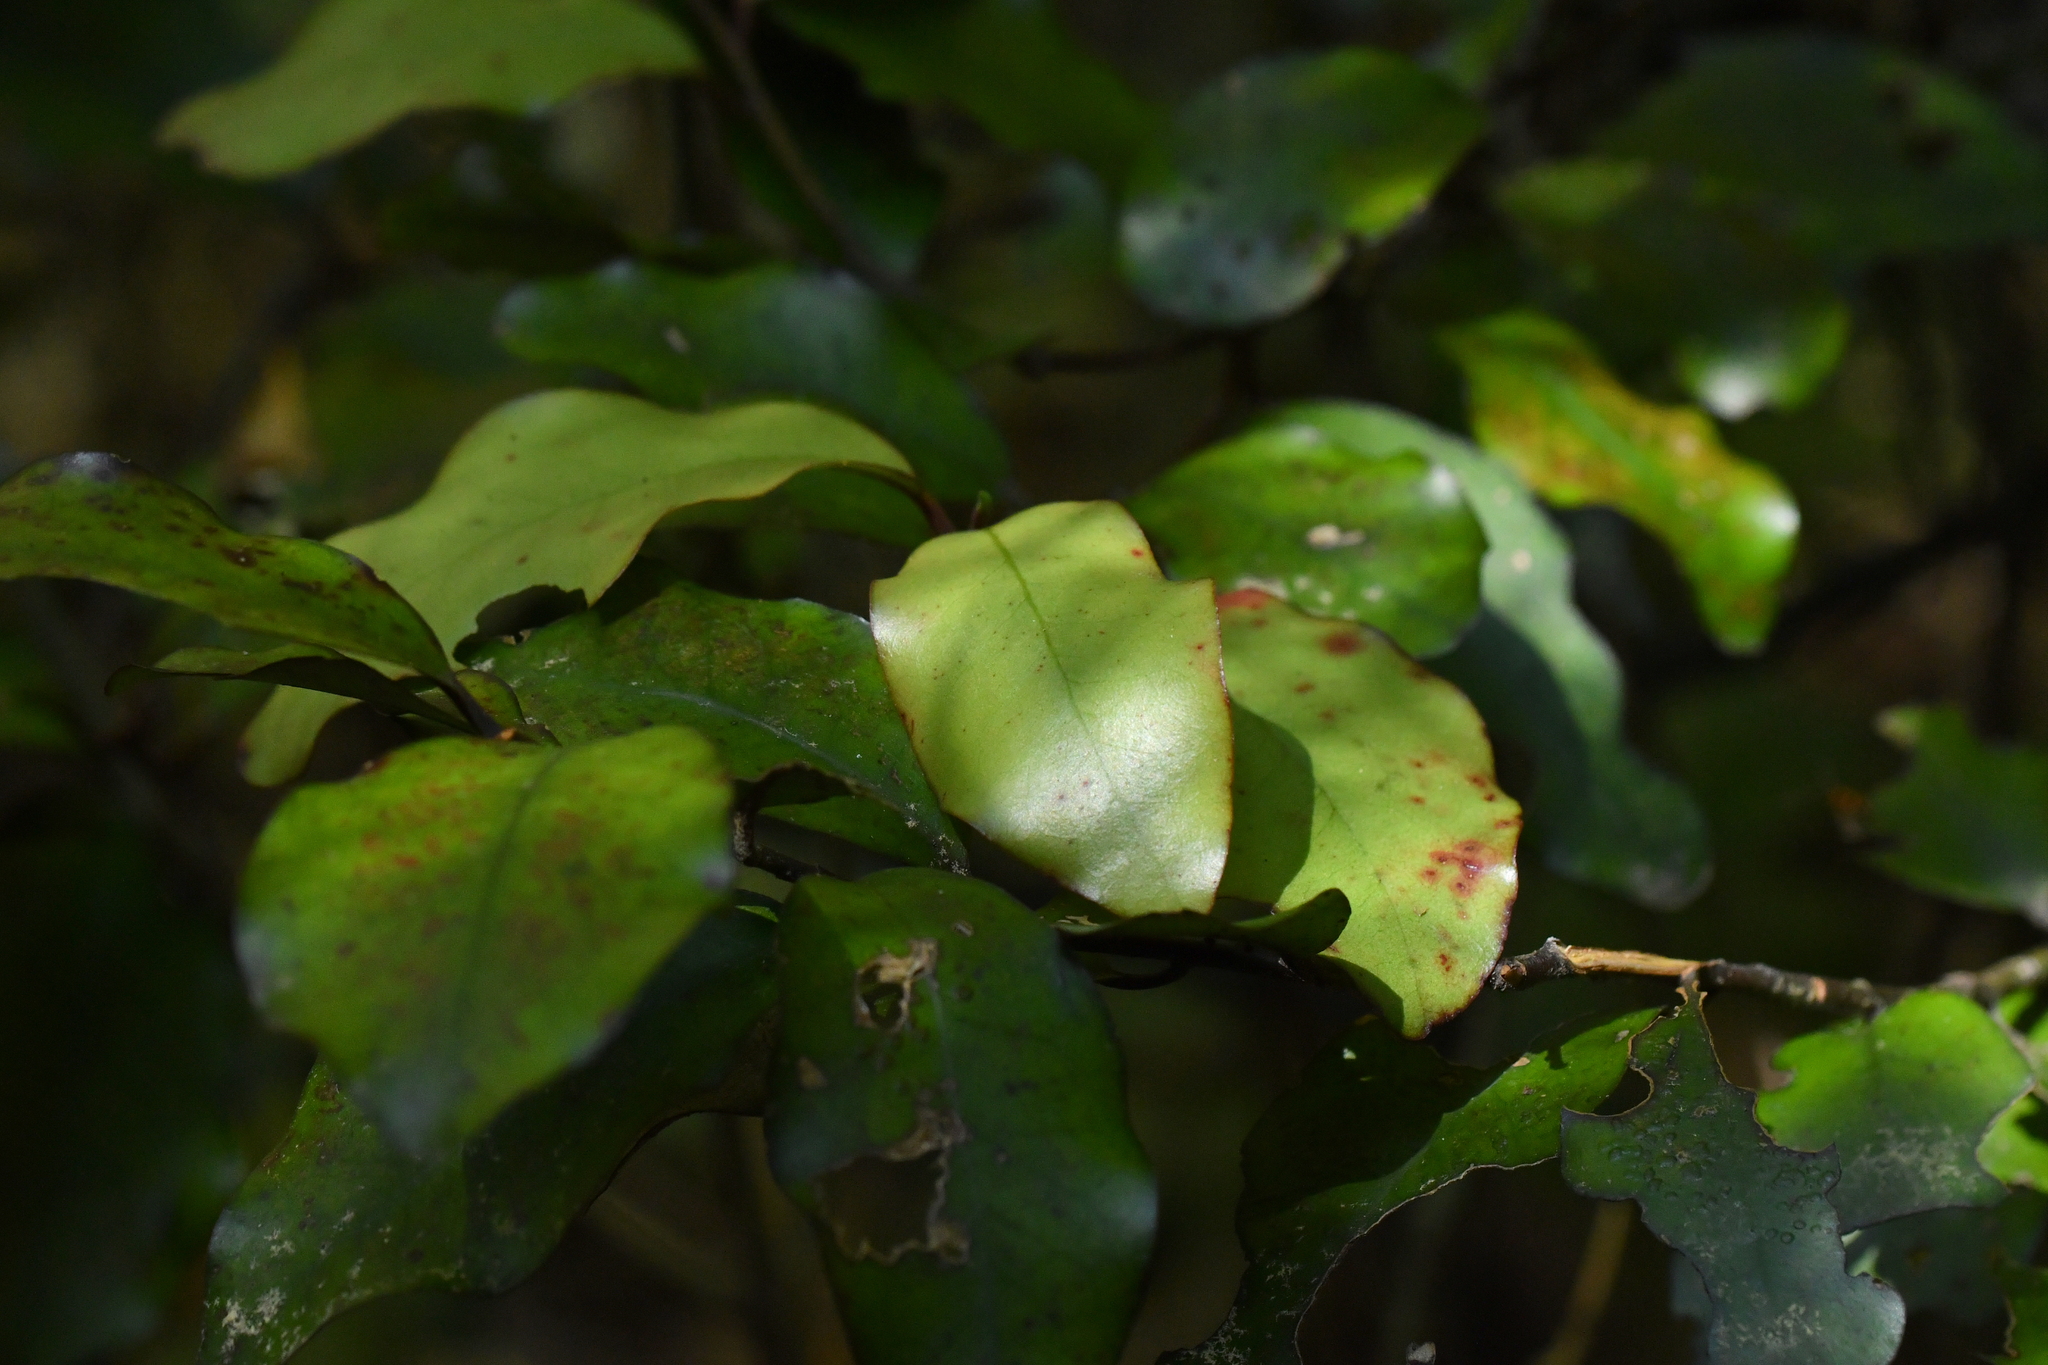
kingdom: Plantae
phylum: Tracheophyta
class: Magnoliopsida
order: Canellales
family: Winteraceae
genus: Pseudowintera
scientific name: Pseudowintera colorata
